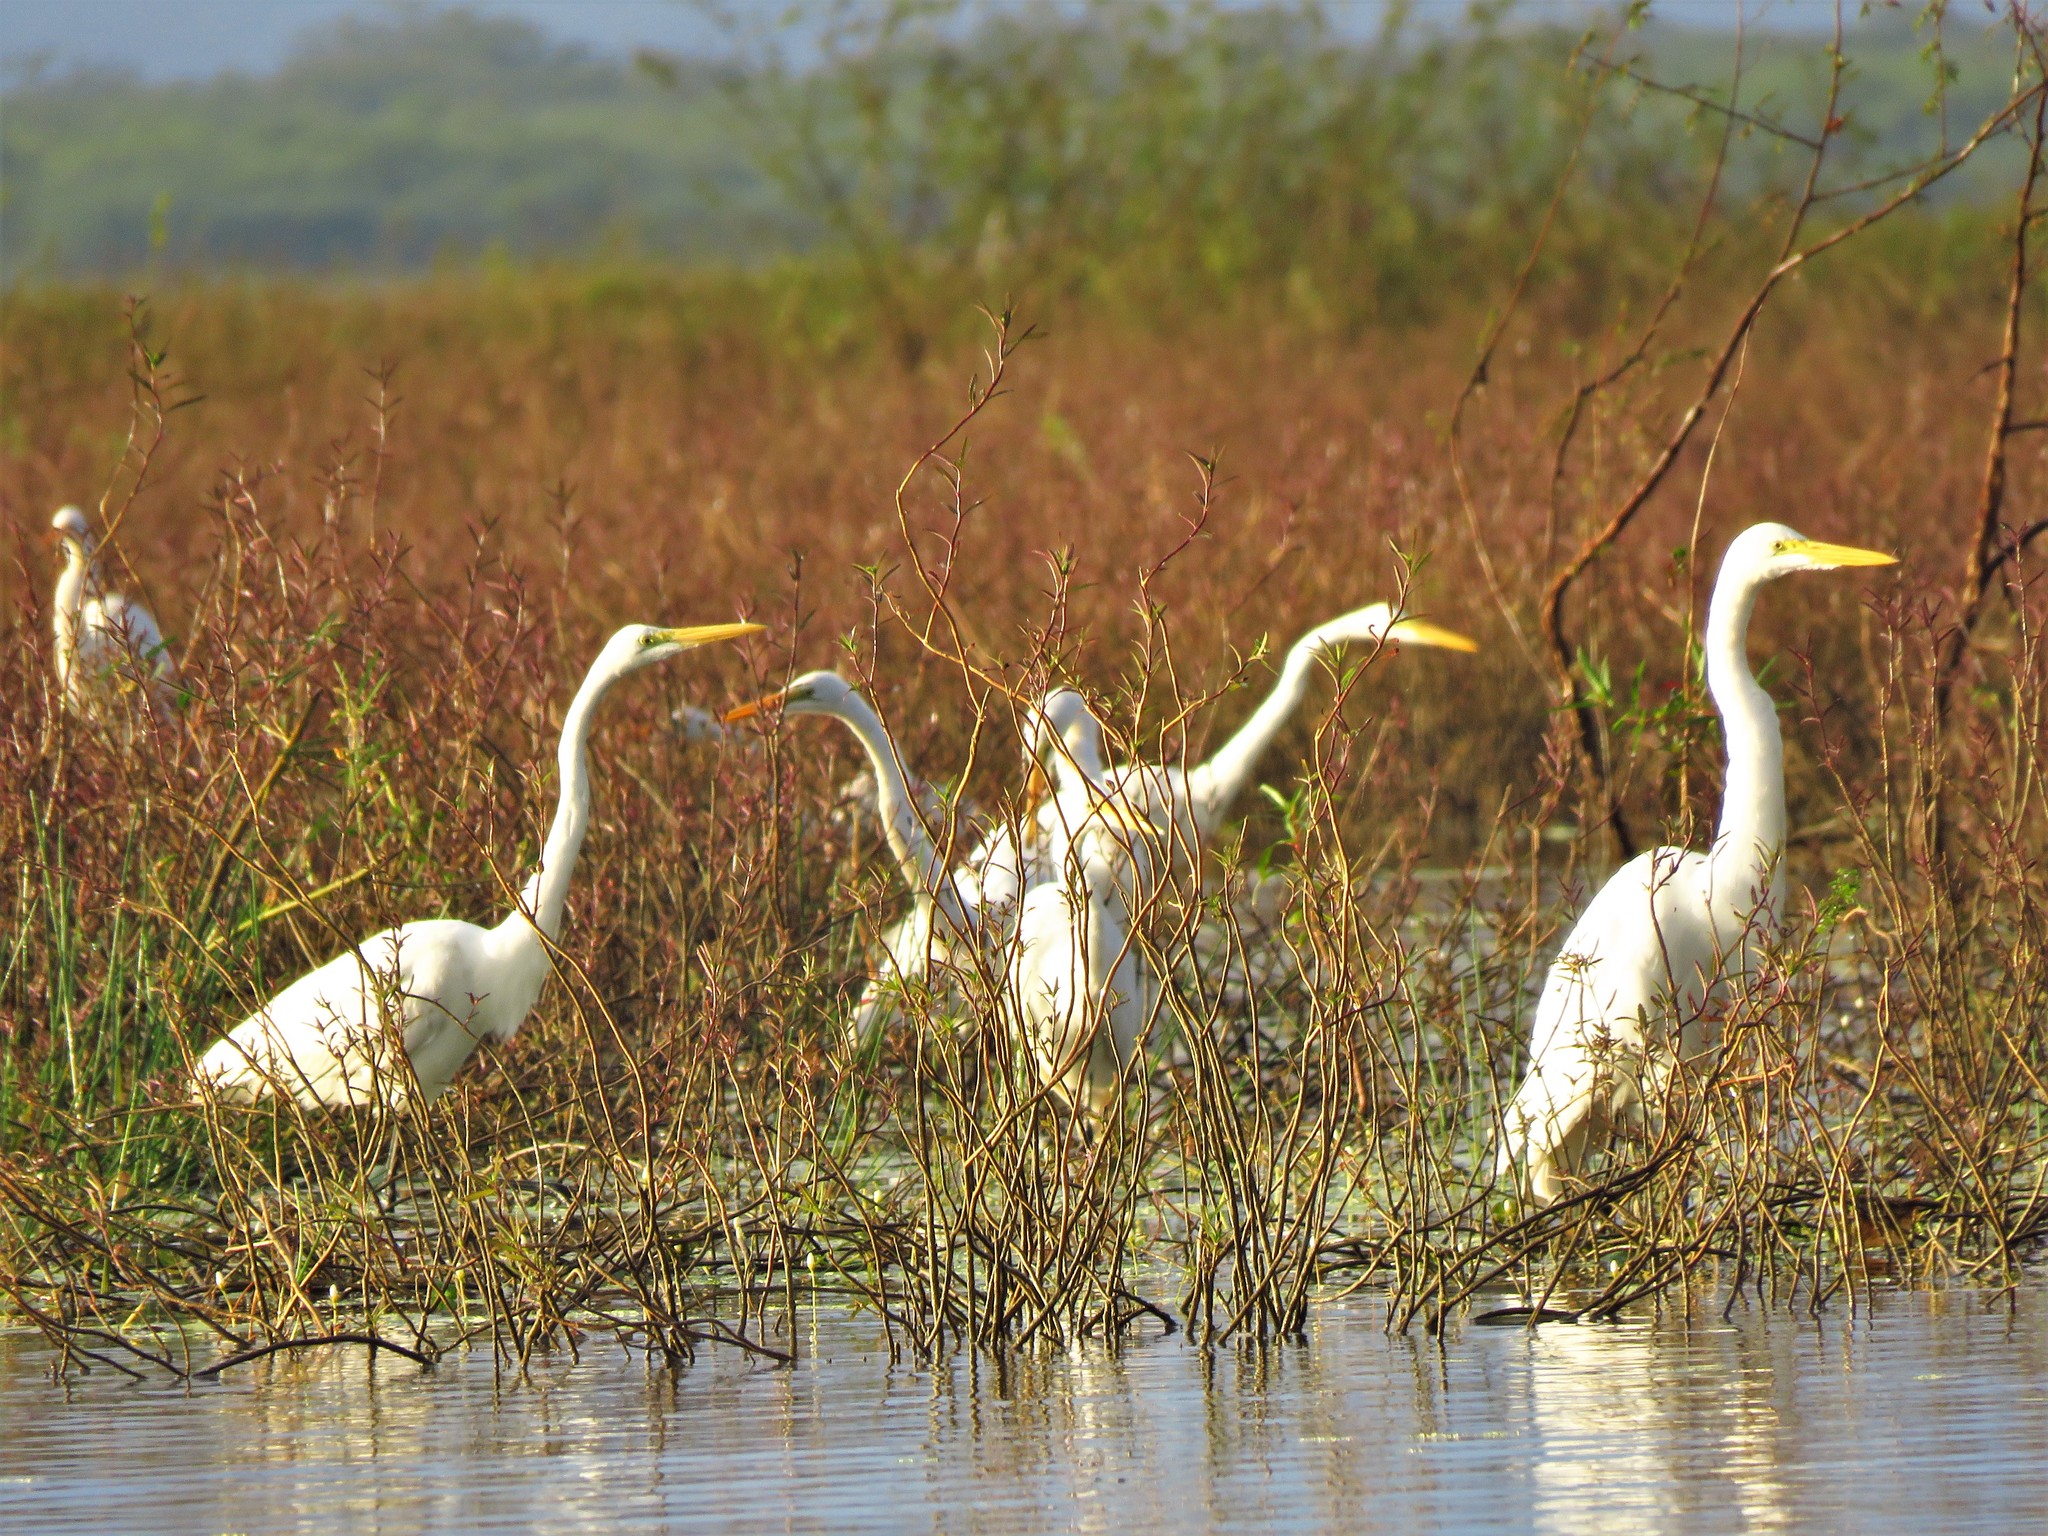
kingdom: Animalia
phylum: Chordata
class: Aves
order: Pelecaniformes
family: Ardeidae
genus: Ardea
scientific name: Ardea alba
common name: Great egret
